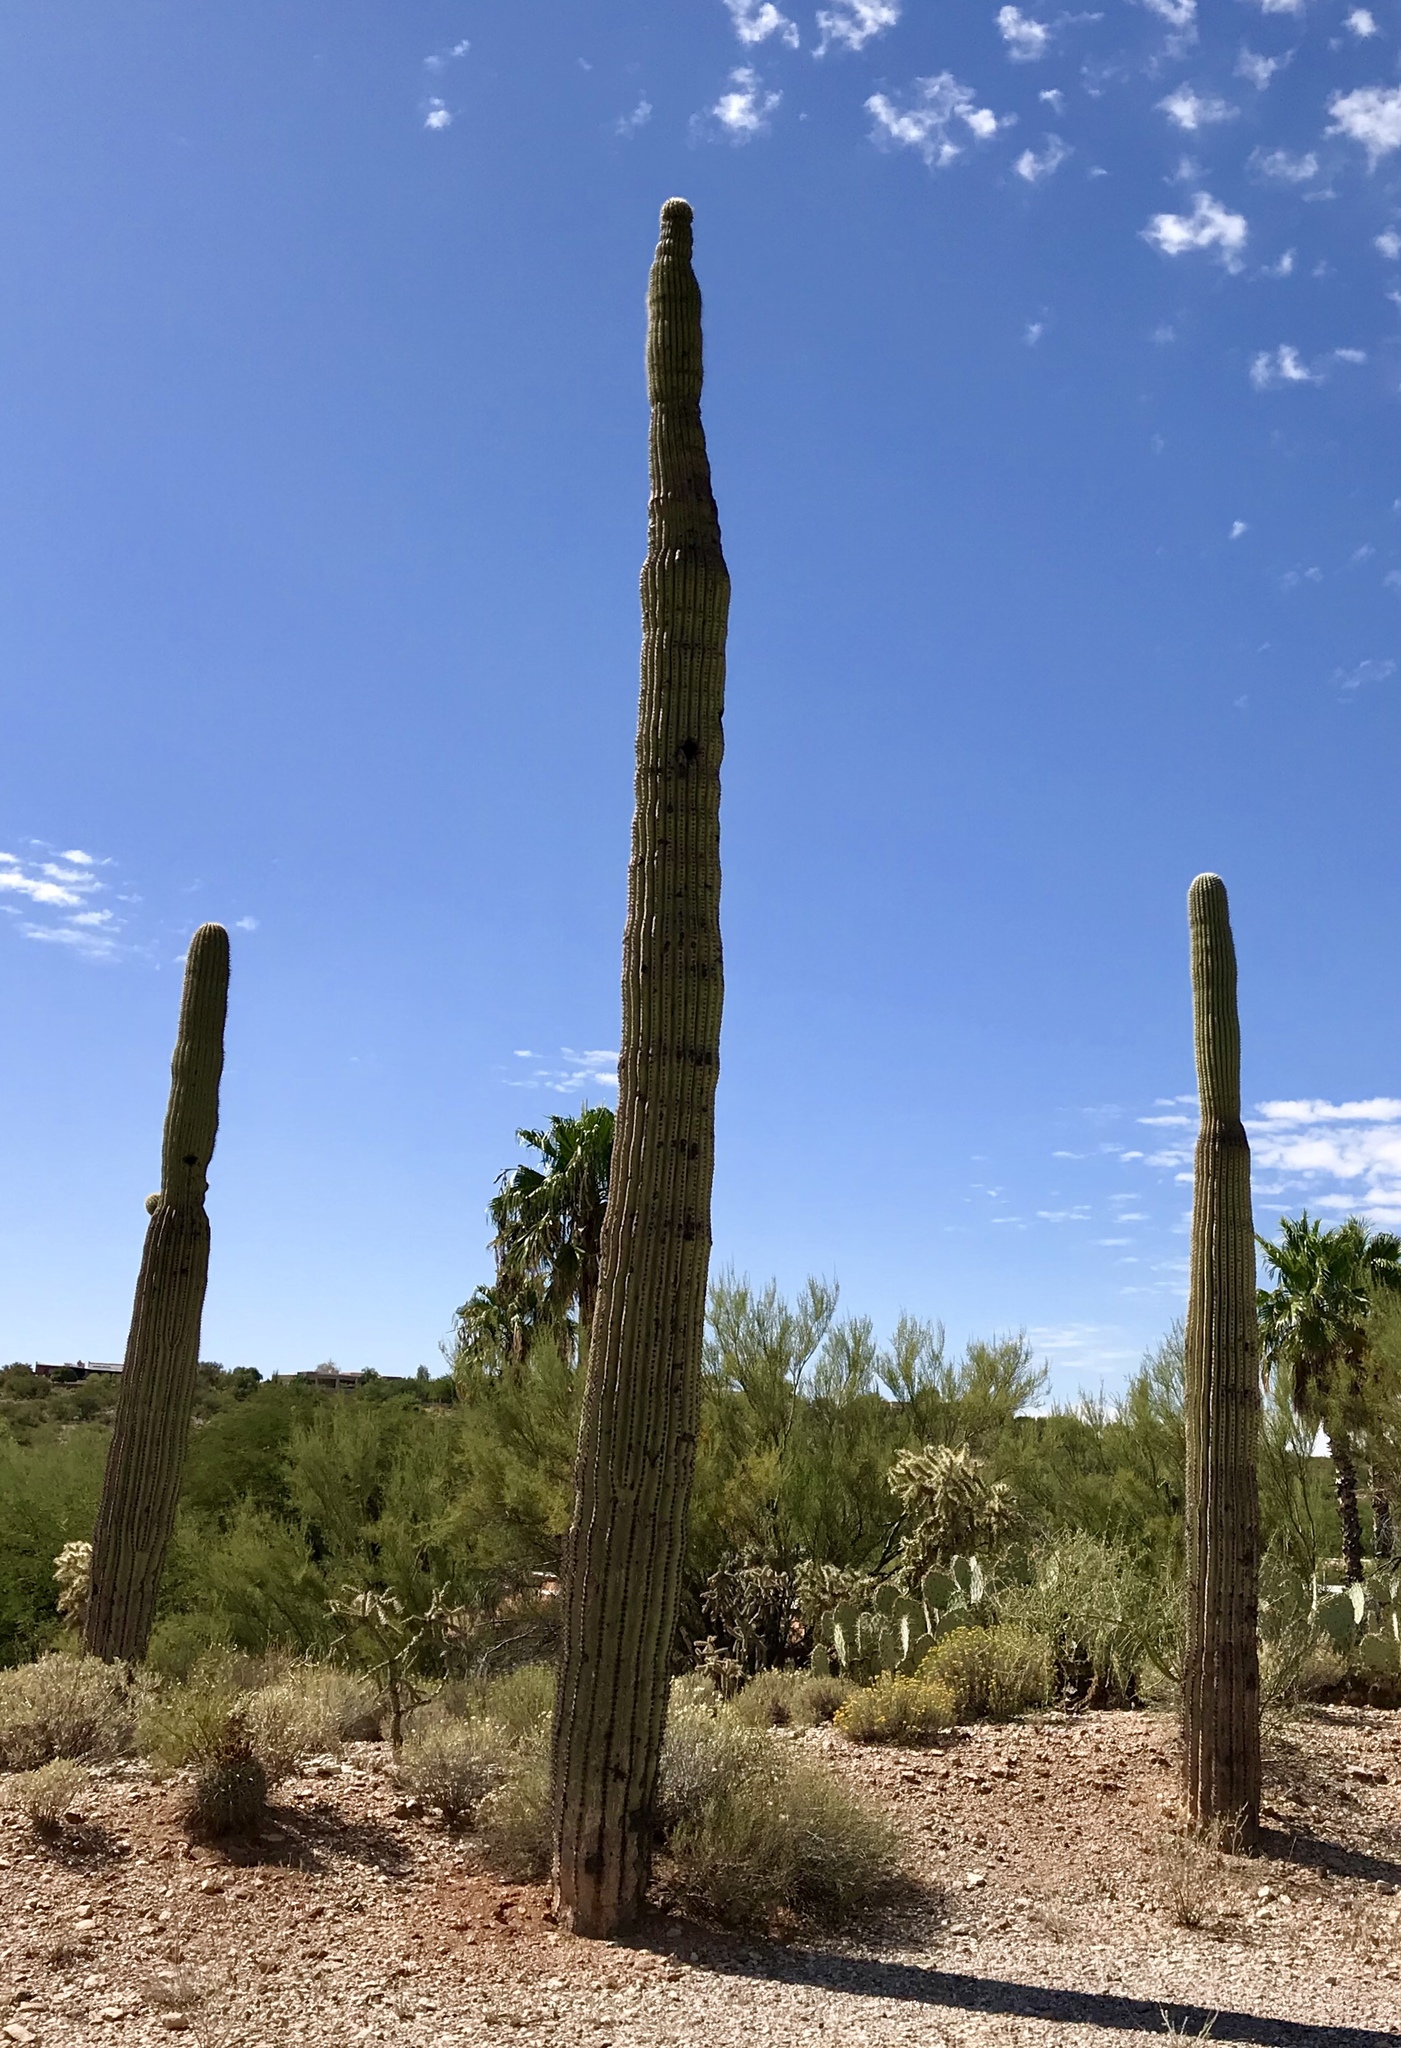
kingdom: Plantae
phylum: Tracheophyta
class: Magnoliopsida
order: Caryophyllales
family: Cactaceae
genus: Carnegiea
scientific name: Carnegiea gigantea
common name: Saguaro
